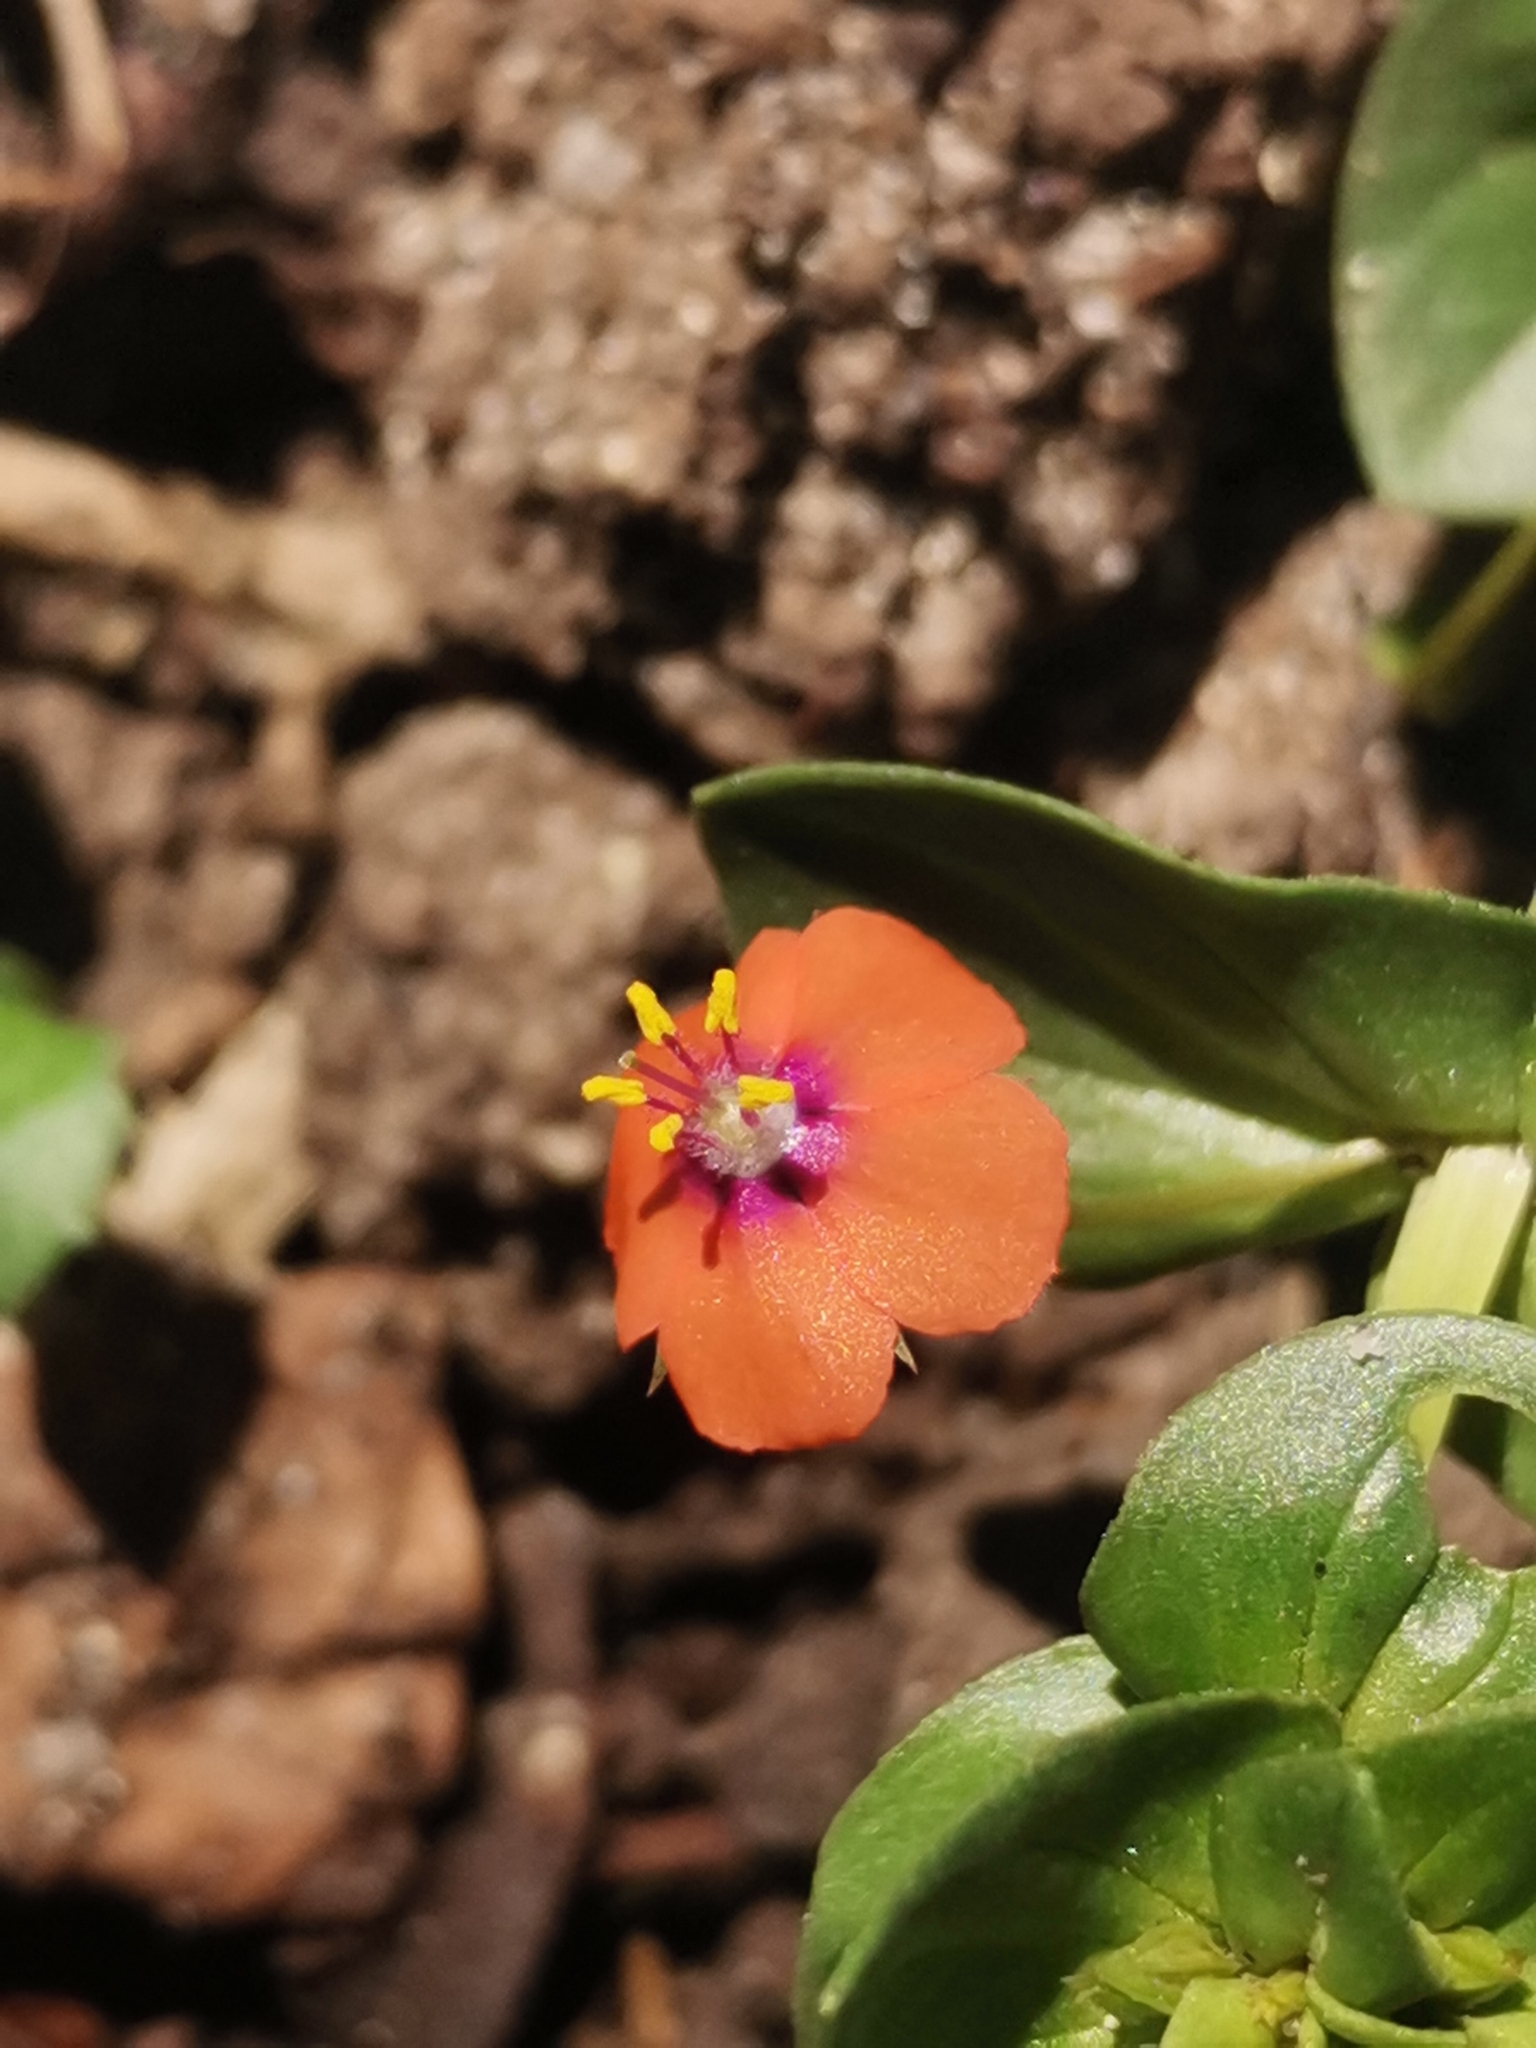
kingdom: Plantae
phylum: Tracheophyta
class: Magnoliopsida
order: Ericales
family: Primulaceae
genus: Lysimachia
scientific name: Lysimachia arvensis
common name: Scarlet pimpernel
